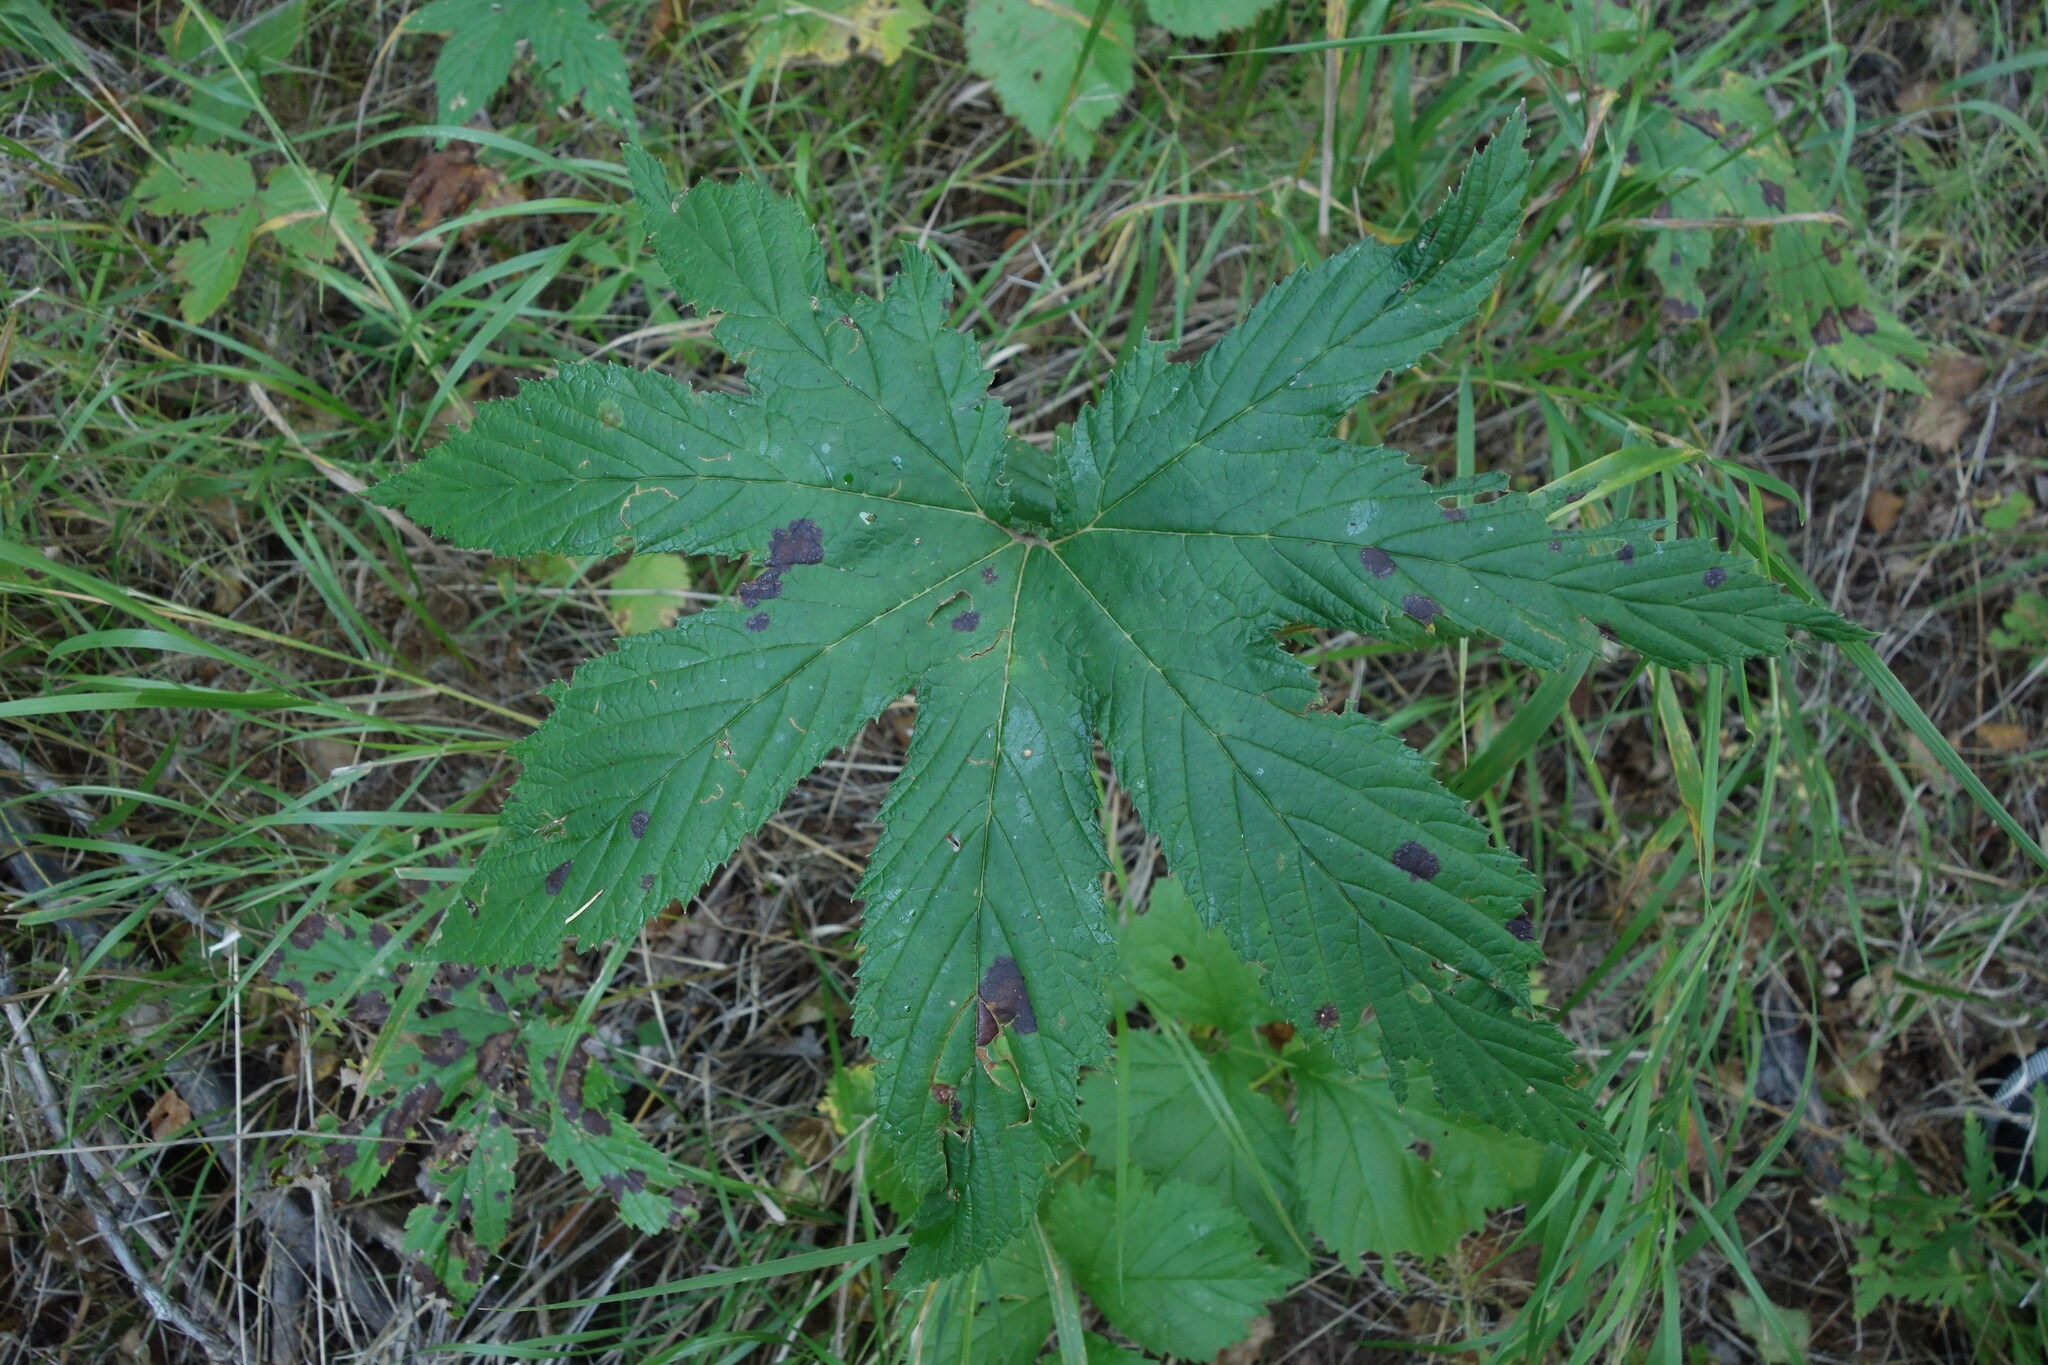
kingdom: Plantae
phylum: Tracheophyta
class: Magnoliopsida
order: Rosales
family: Rosaceae
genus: Filipendula
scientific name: Filipendula digitata
